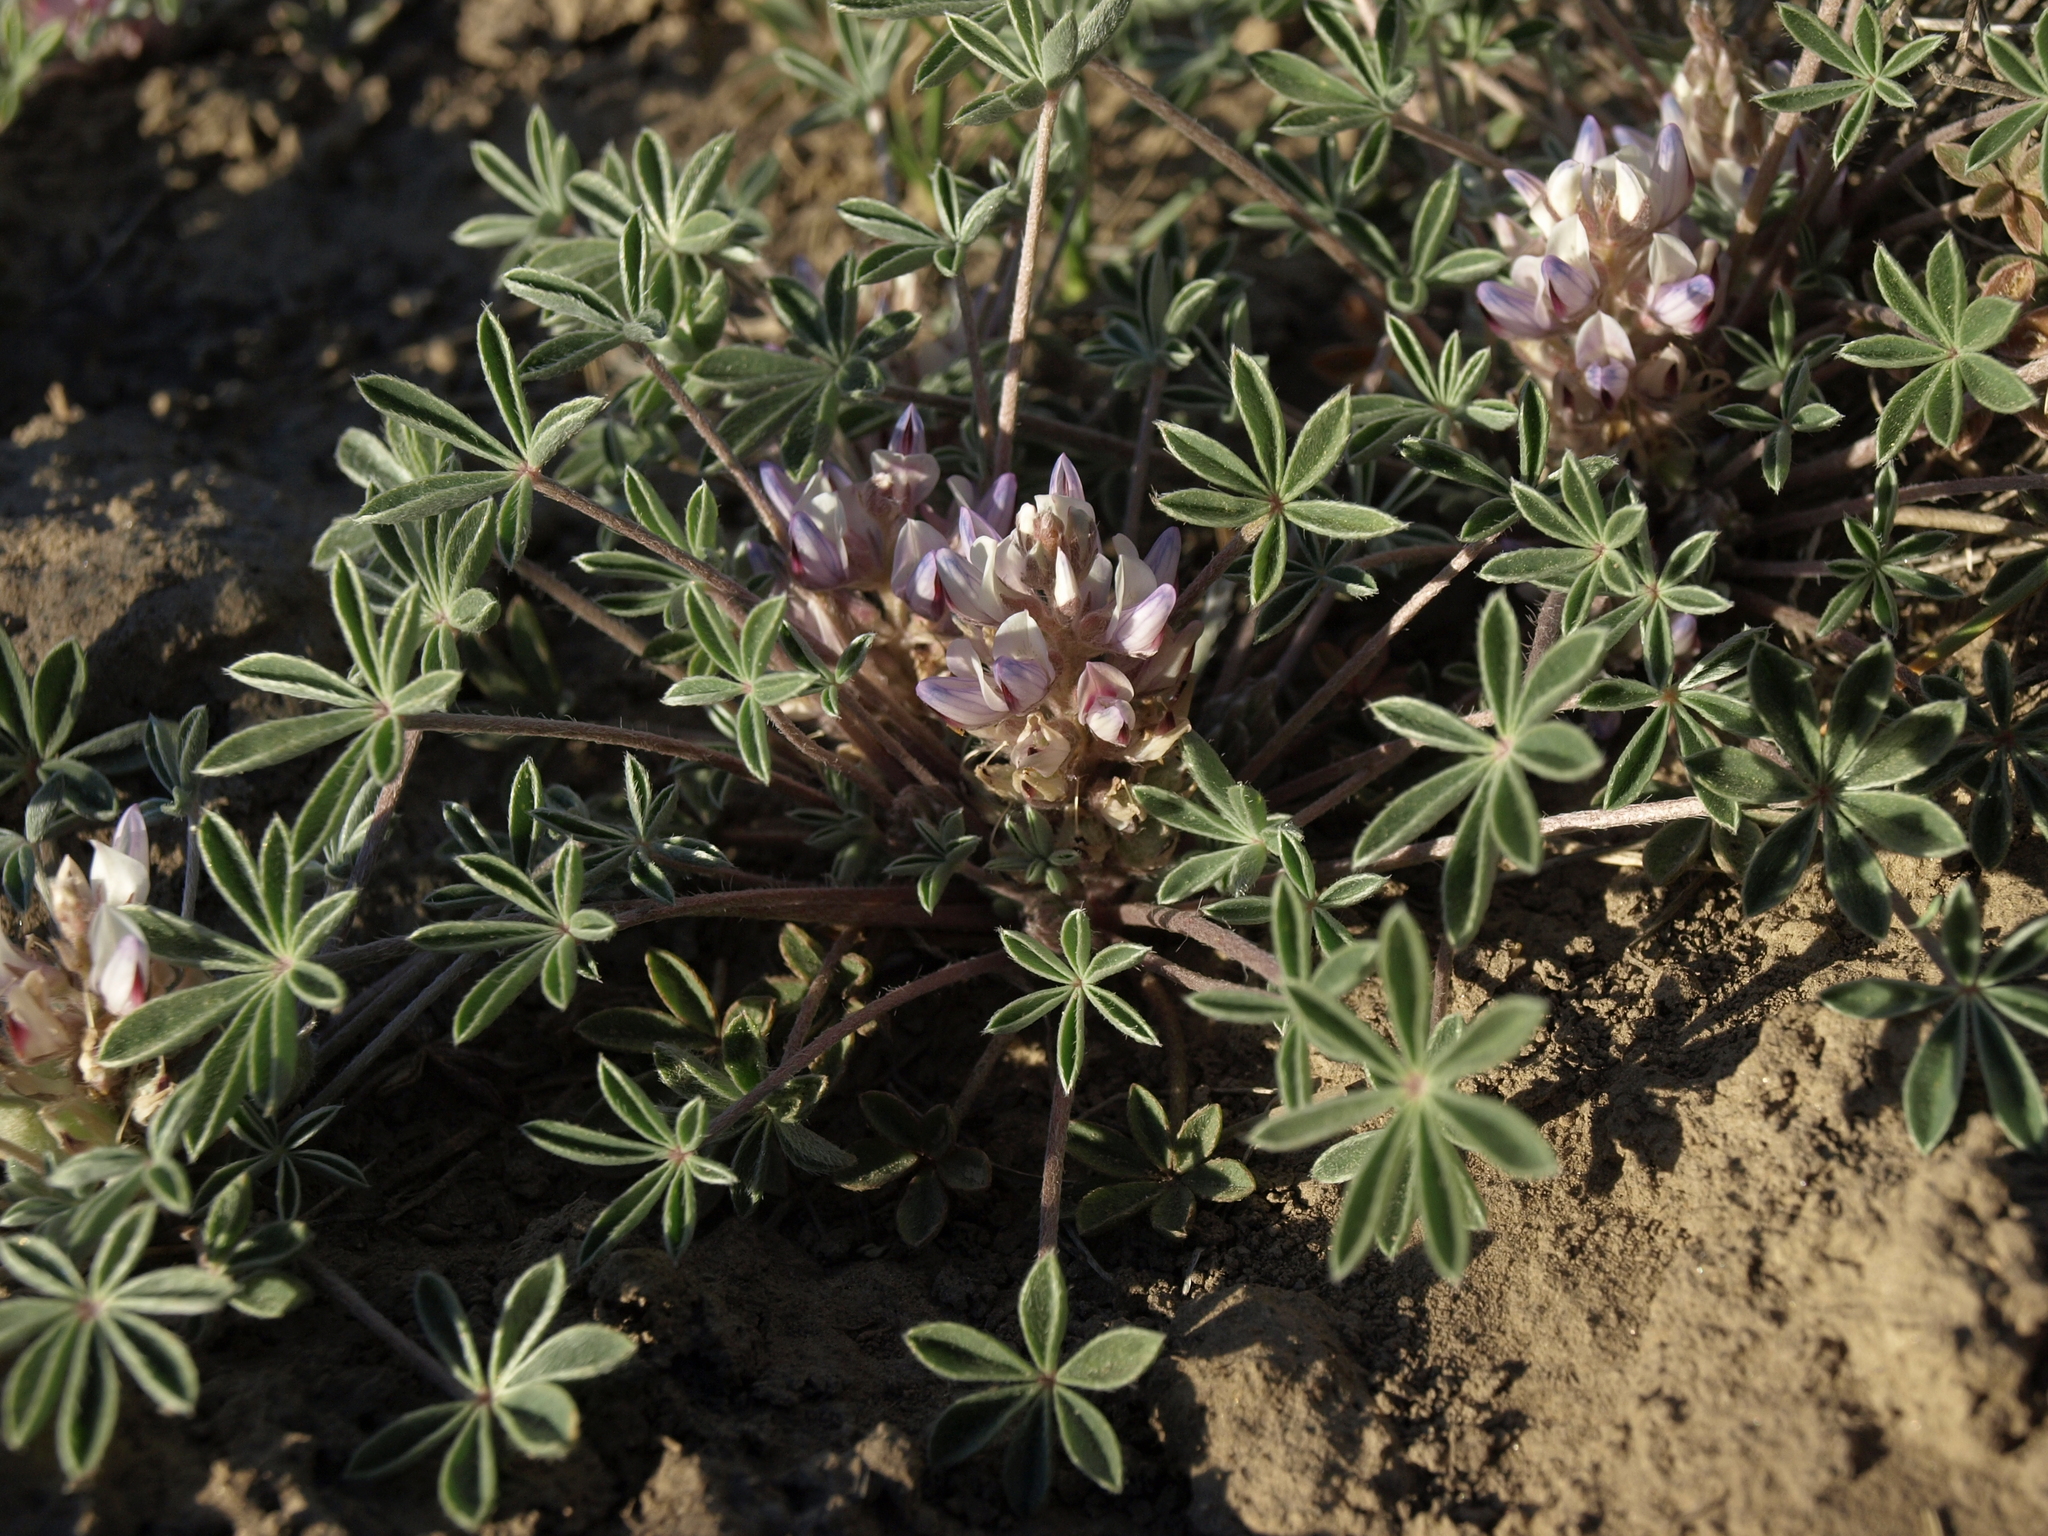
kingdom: Plantae
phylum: Tracheophyta
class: Magnoliopsida
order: Fabales
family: Fabaceae
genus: Lupinus
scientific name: Lupinus caespitosus
